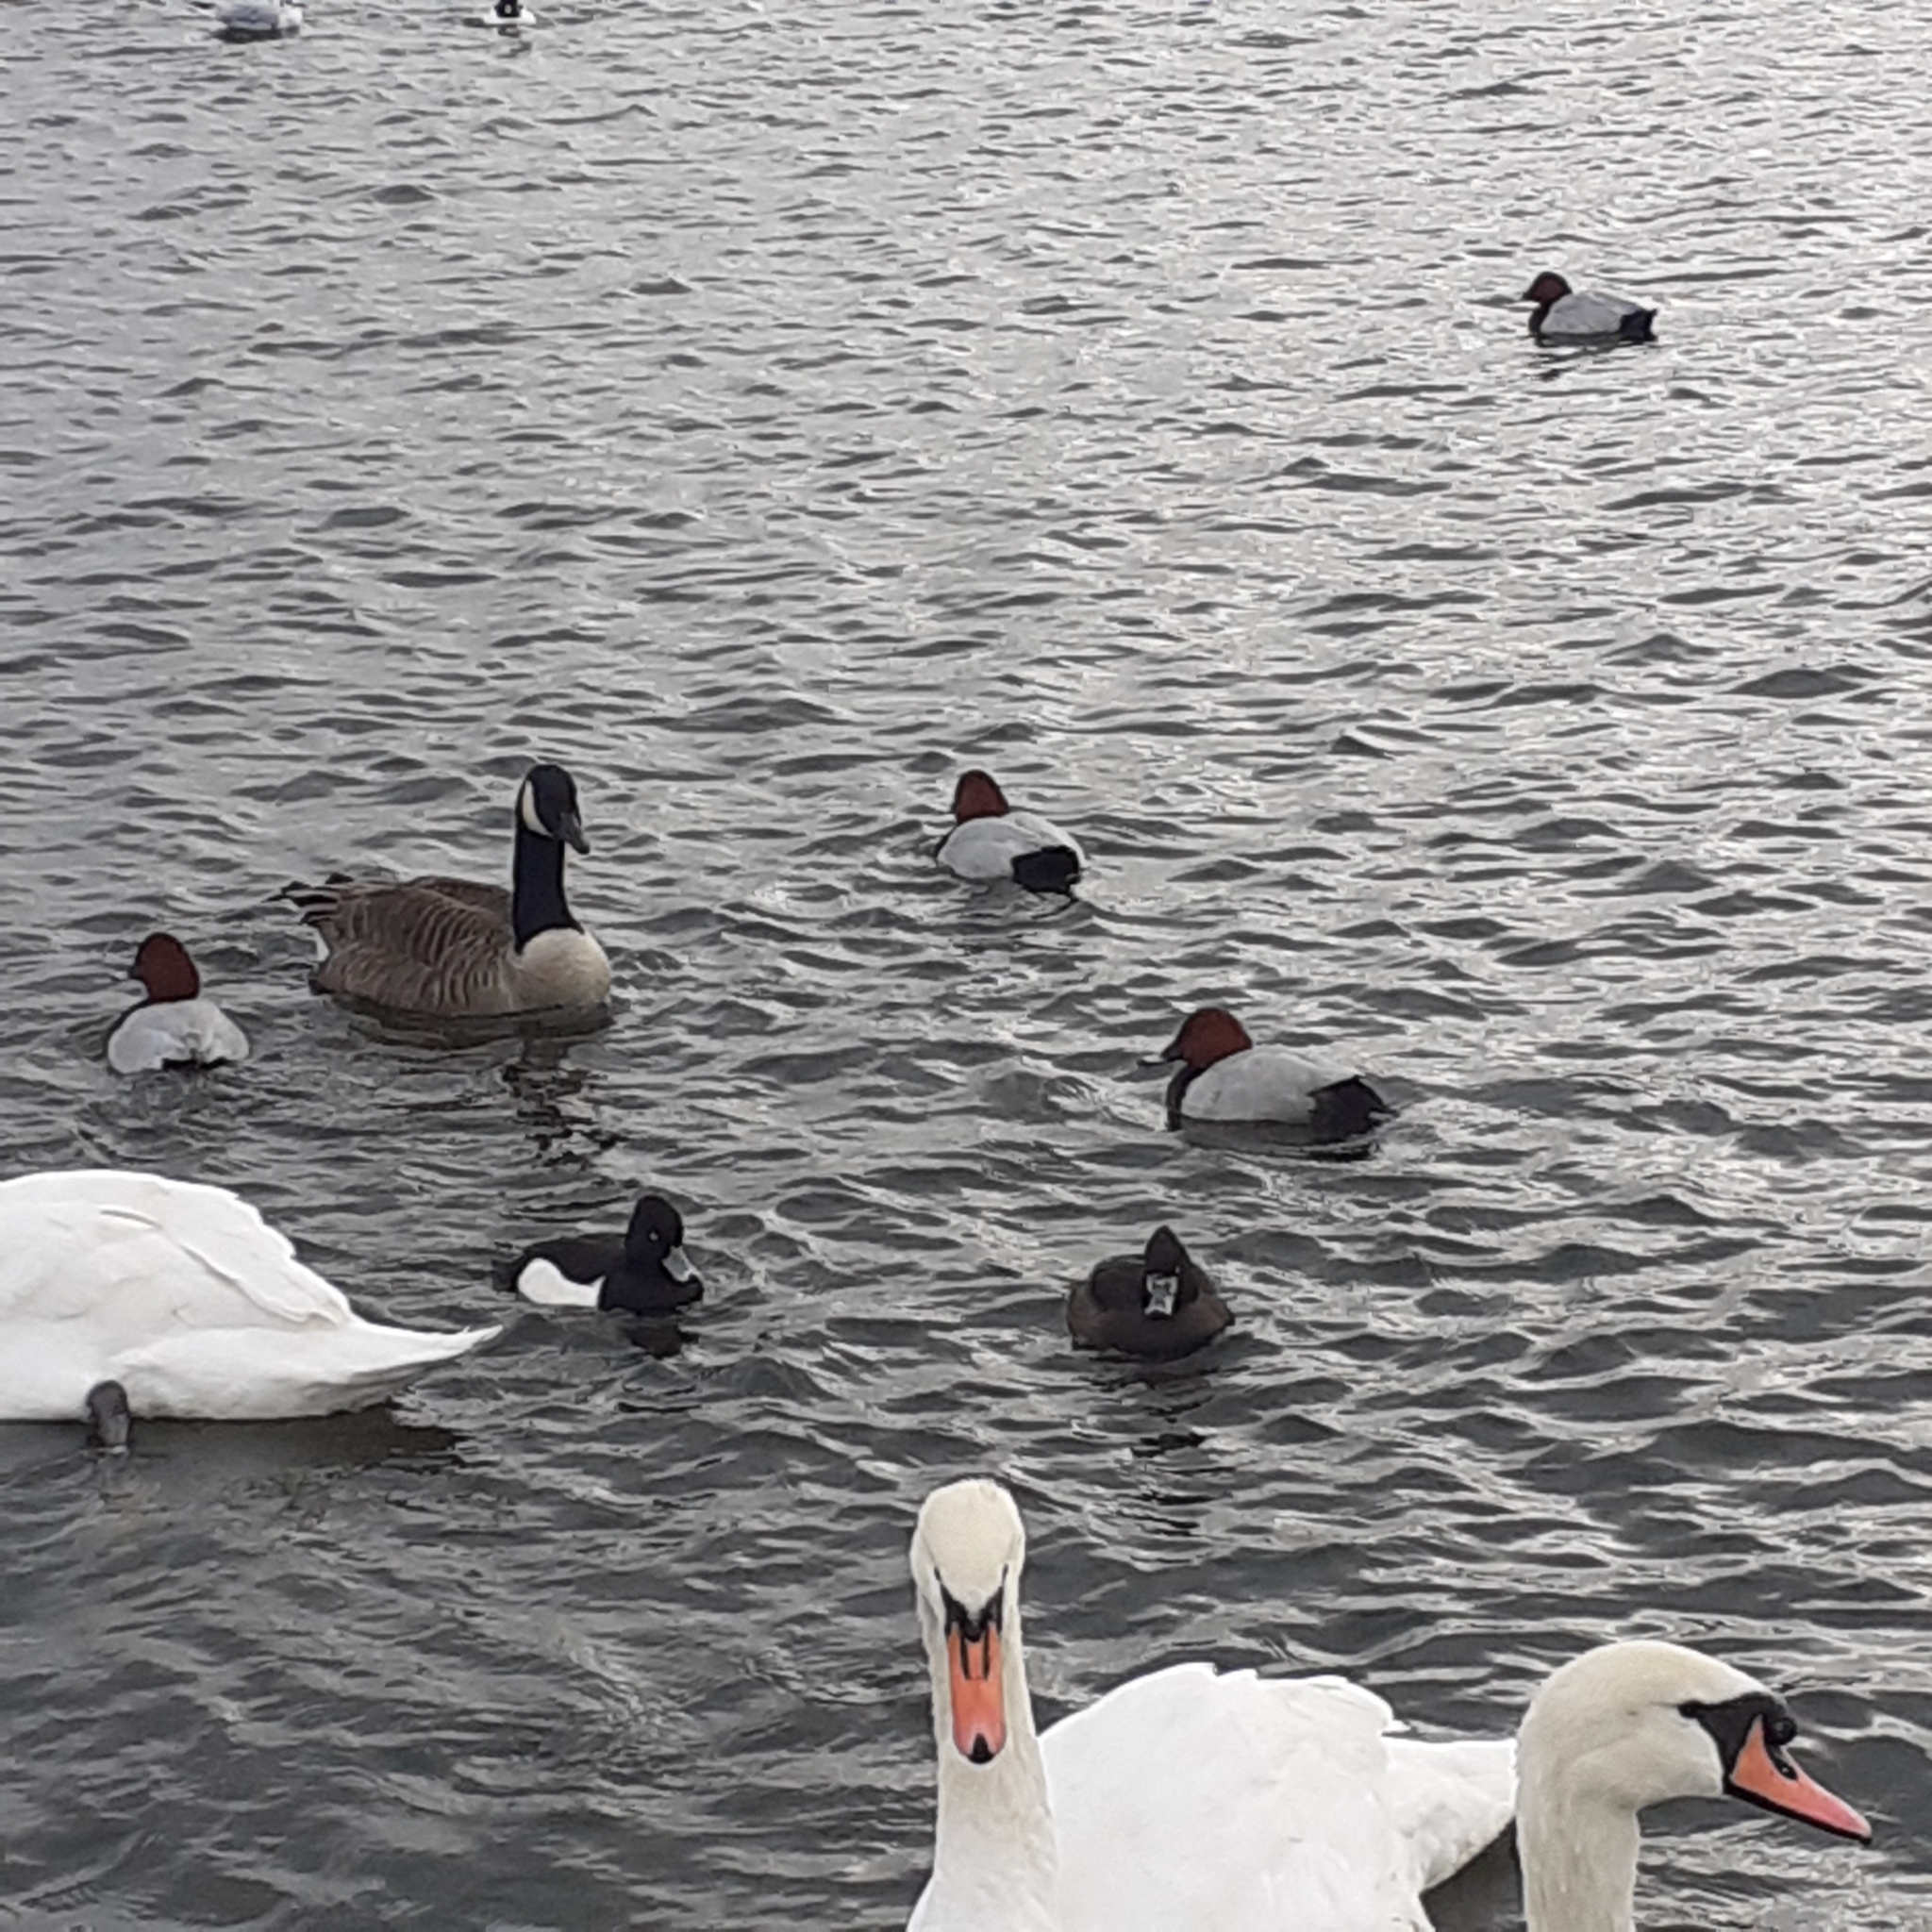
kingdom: Animalia
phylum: Chordata
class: Aves
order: Anseriformes
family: Anatidae
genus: Aythya
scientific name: Aythya ferina
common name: Common pochard
